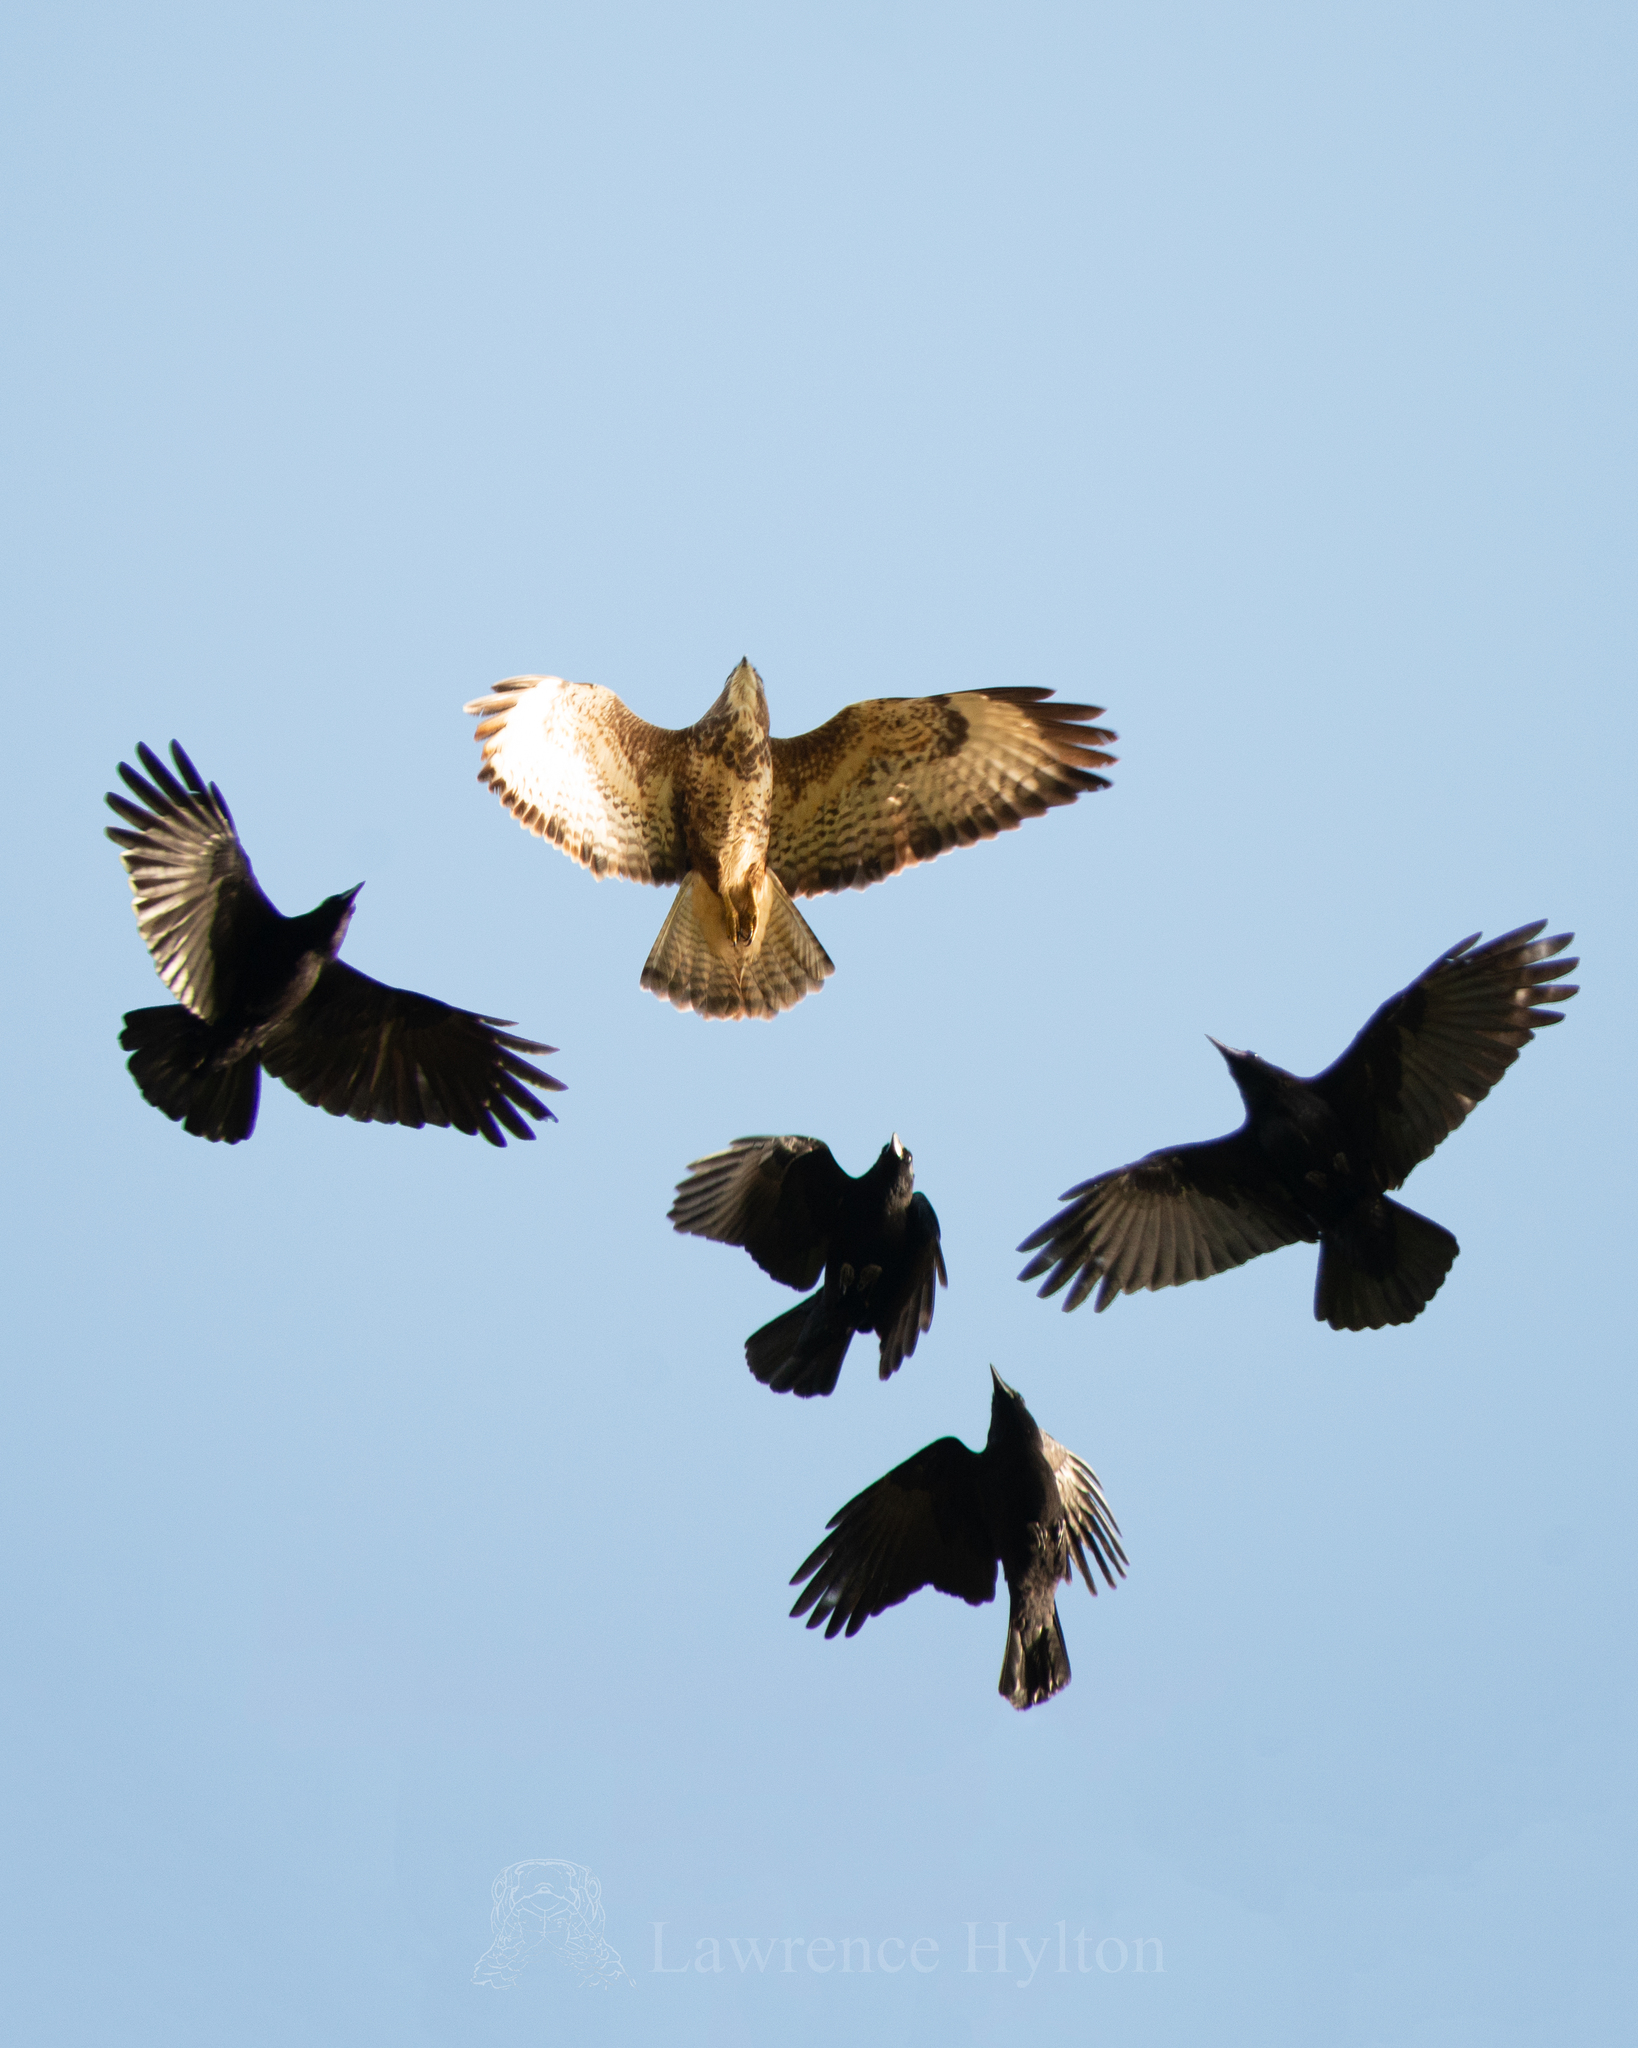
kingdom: Animalia
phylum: Chordata
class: Aves
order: Accipitriformes
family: Accipitridae
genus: Buteo
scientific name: Buteo buteo
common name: Common buzzard
